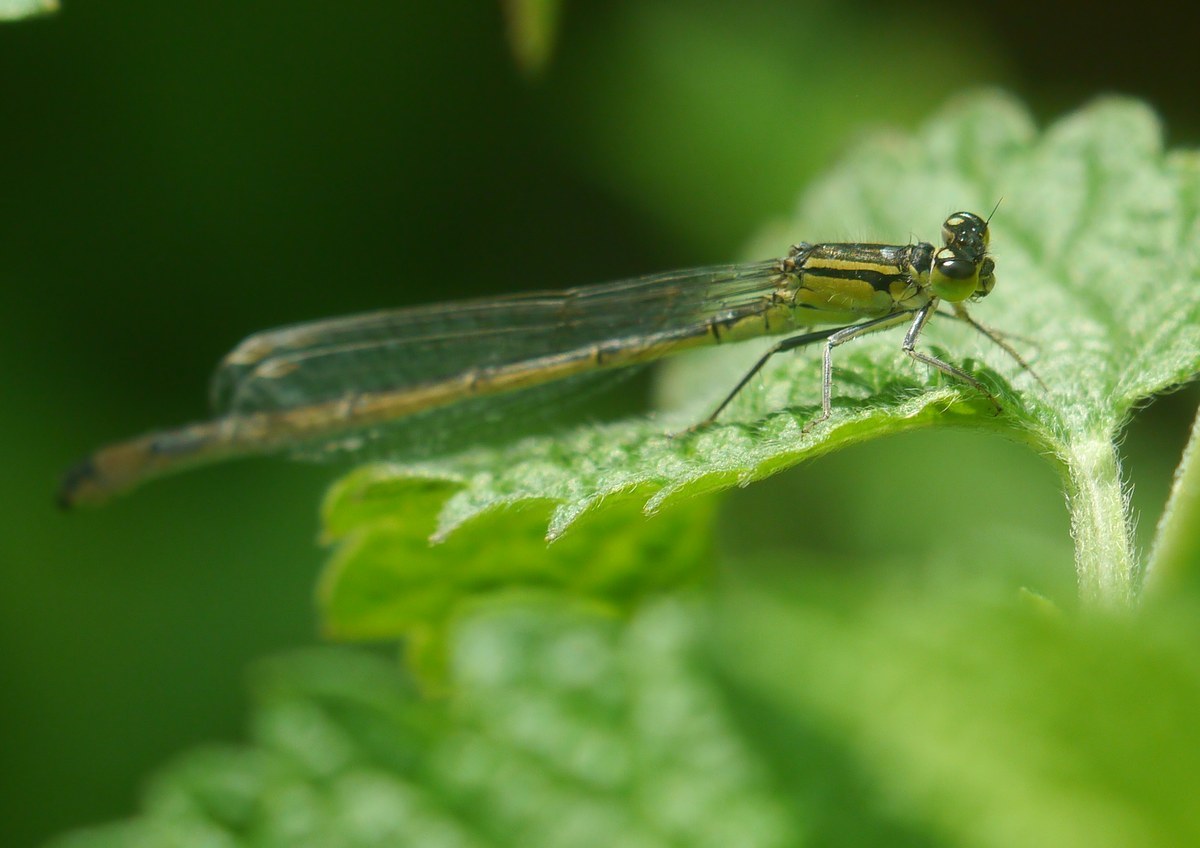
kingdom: Animalia
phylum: Arthropoda
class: Insecta
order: Odonata
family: Coenagrionidae
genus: Ischnura
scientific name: Ischnura elegans
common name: Blue-tailed damselfly
